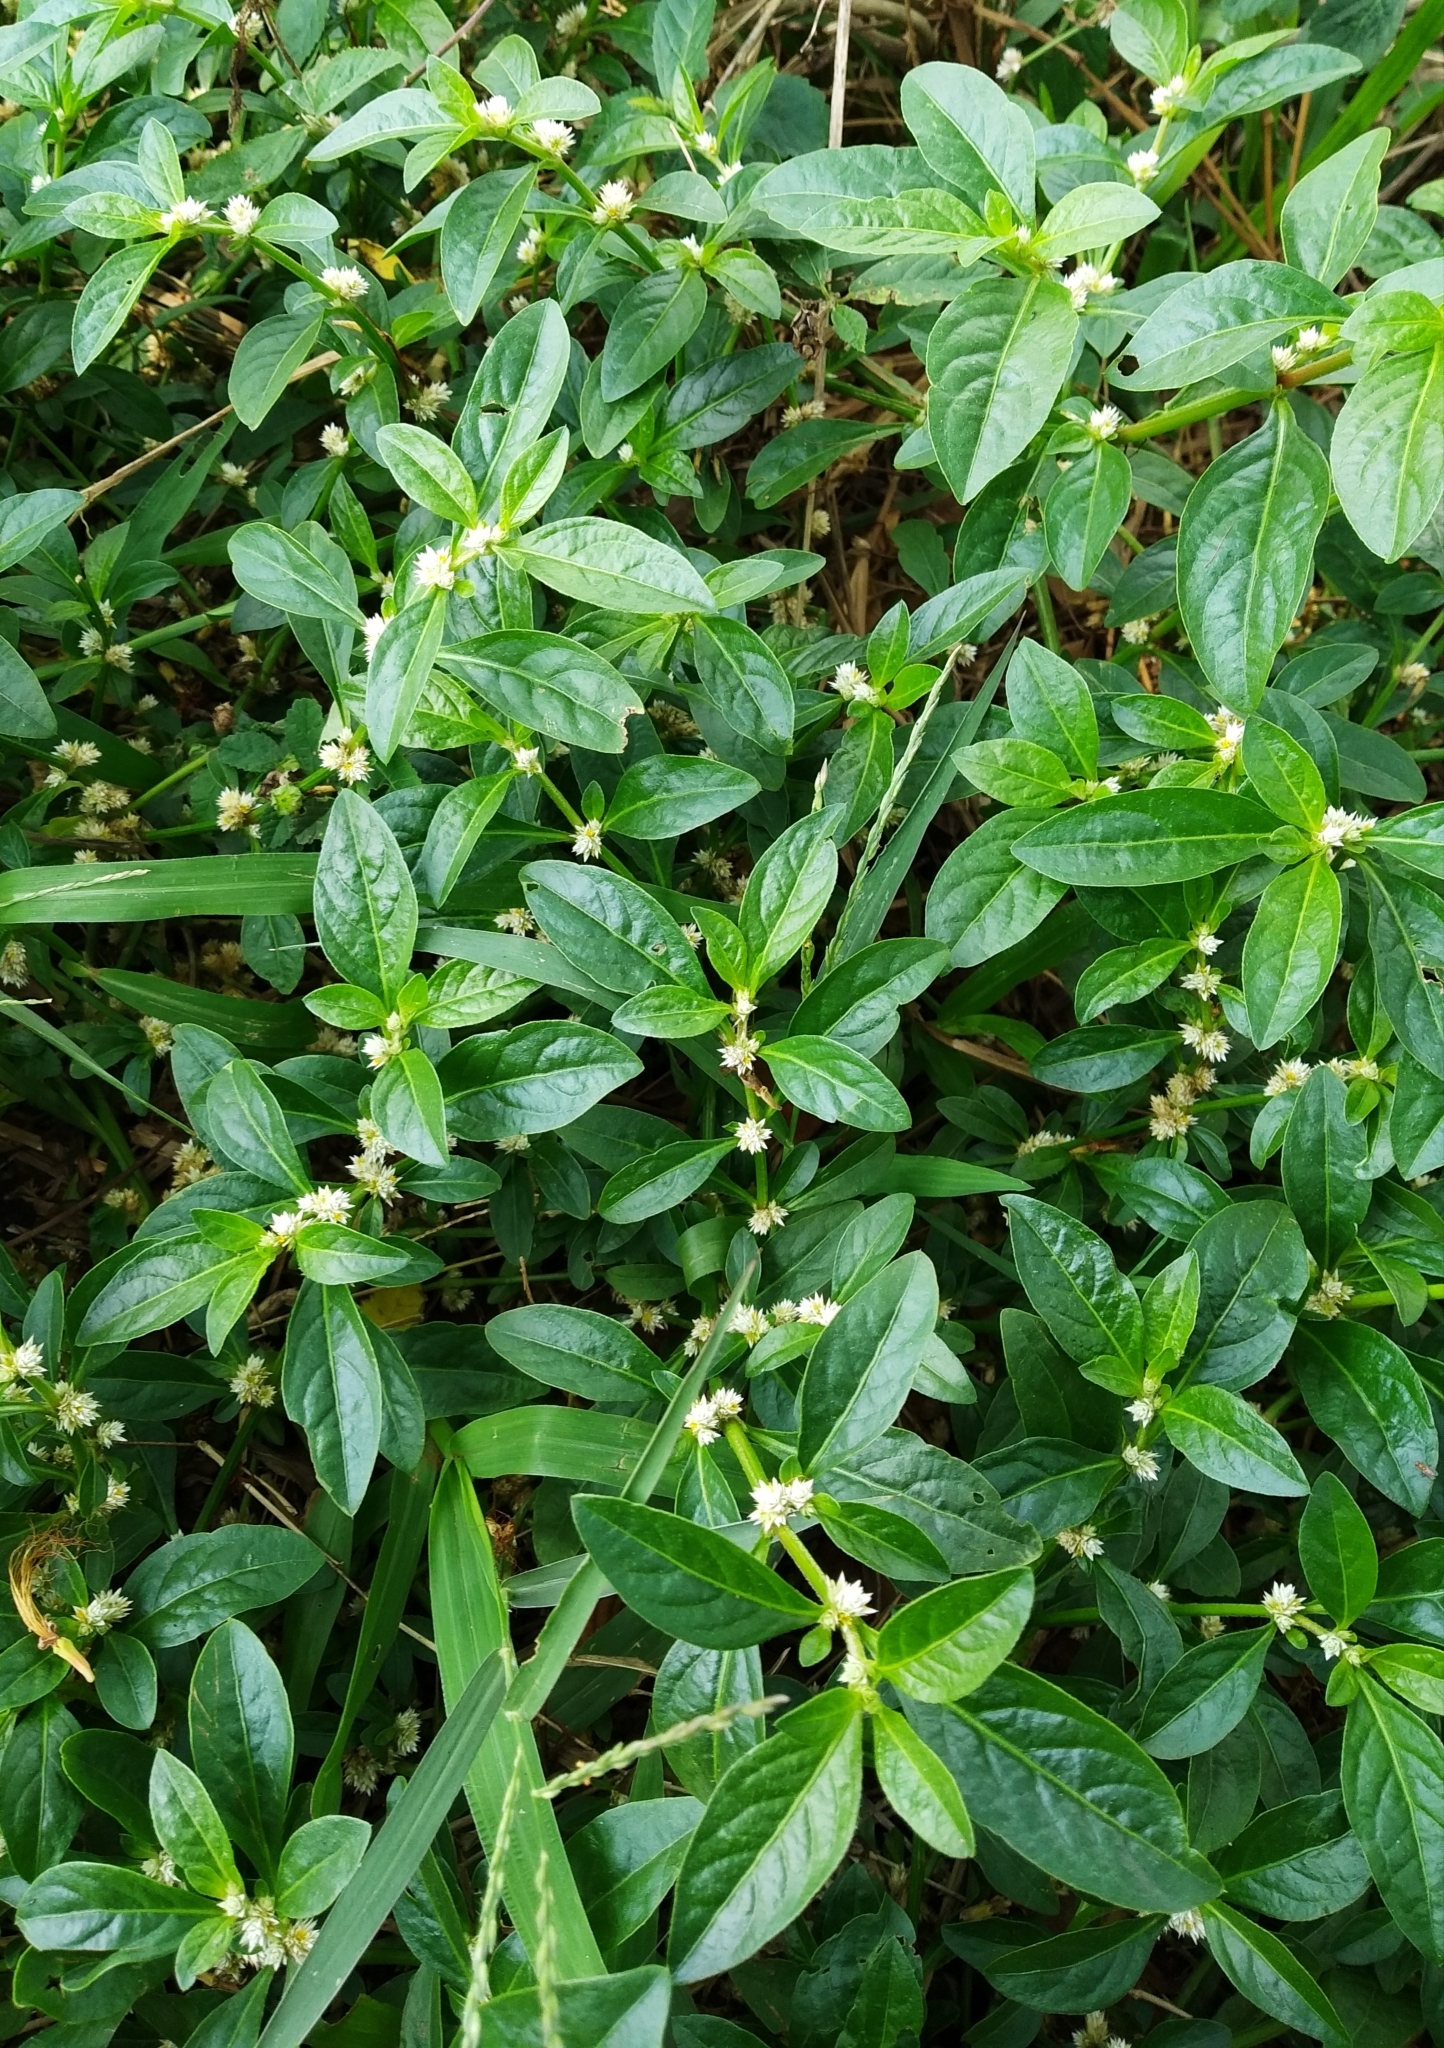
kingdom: Plantae
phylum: Tracheophyta
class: Magnoliopsida
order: Caryophyllales
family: Amaranthaceae
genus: Alternanthera
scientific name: Alternanthera sessilis
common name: Sessile joyweed
